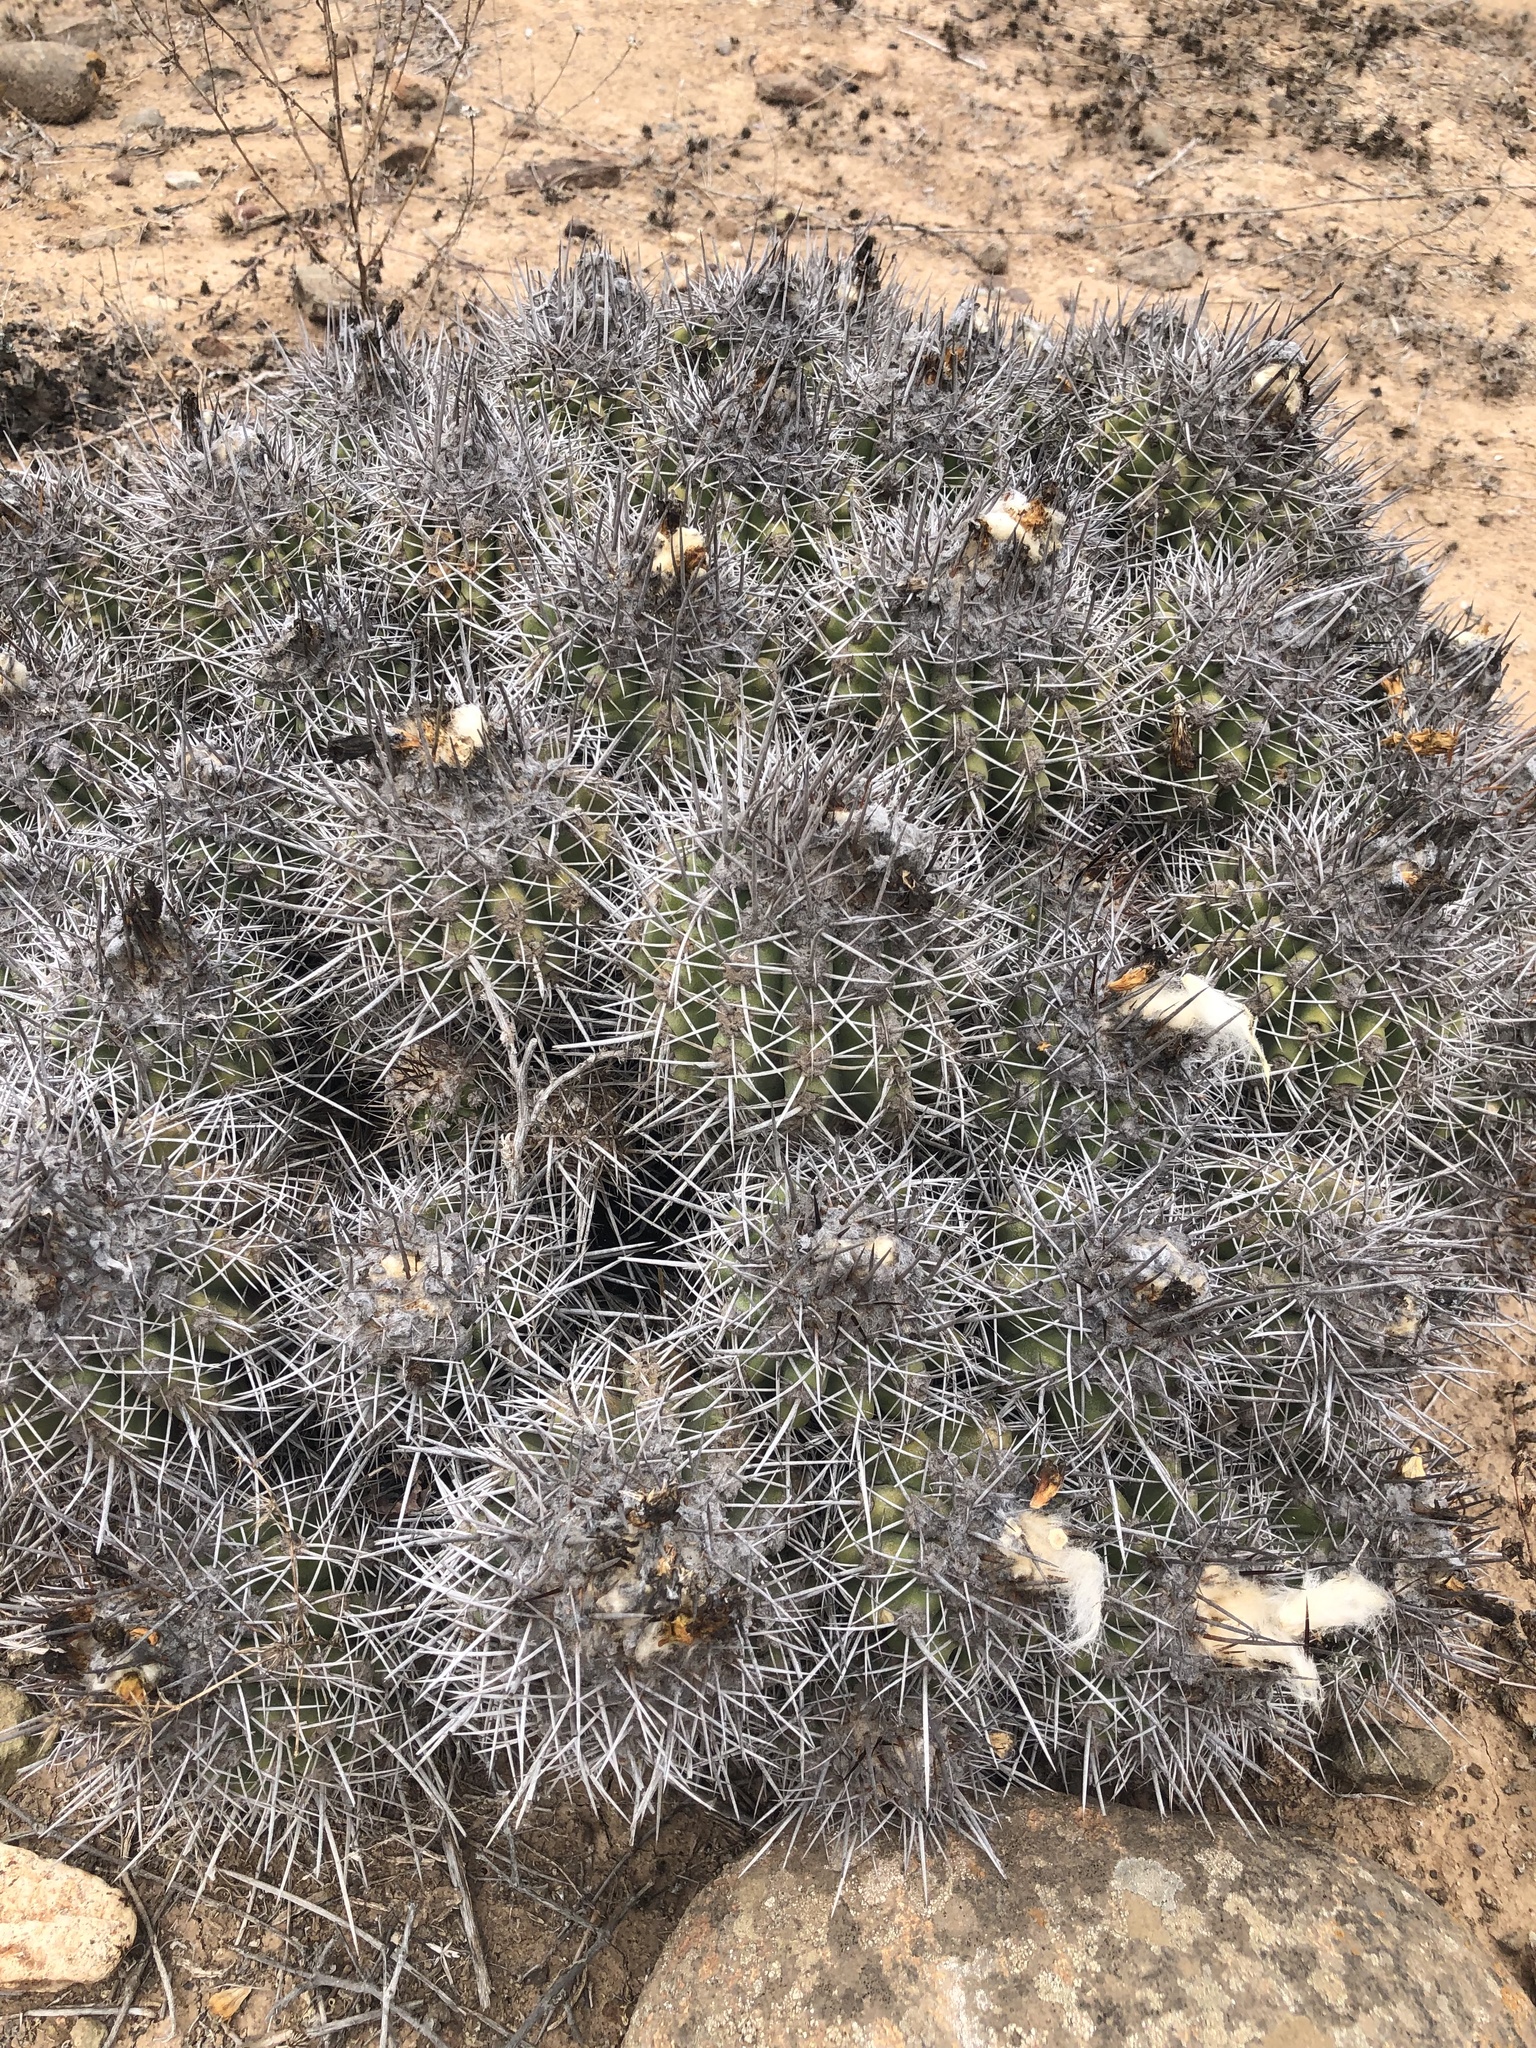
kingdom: Plantae
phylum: Tracheophyta
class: Magnoliopsida
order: Caryophyllales
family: Cactaceae
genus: Copiapoa
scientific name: Copiapoa coquimbana
